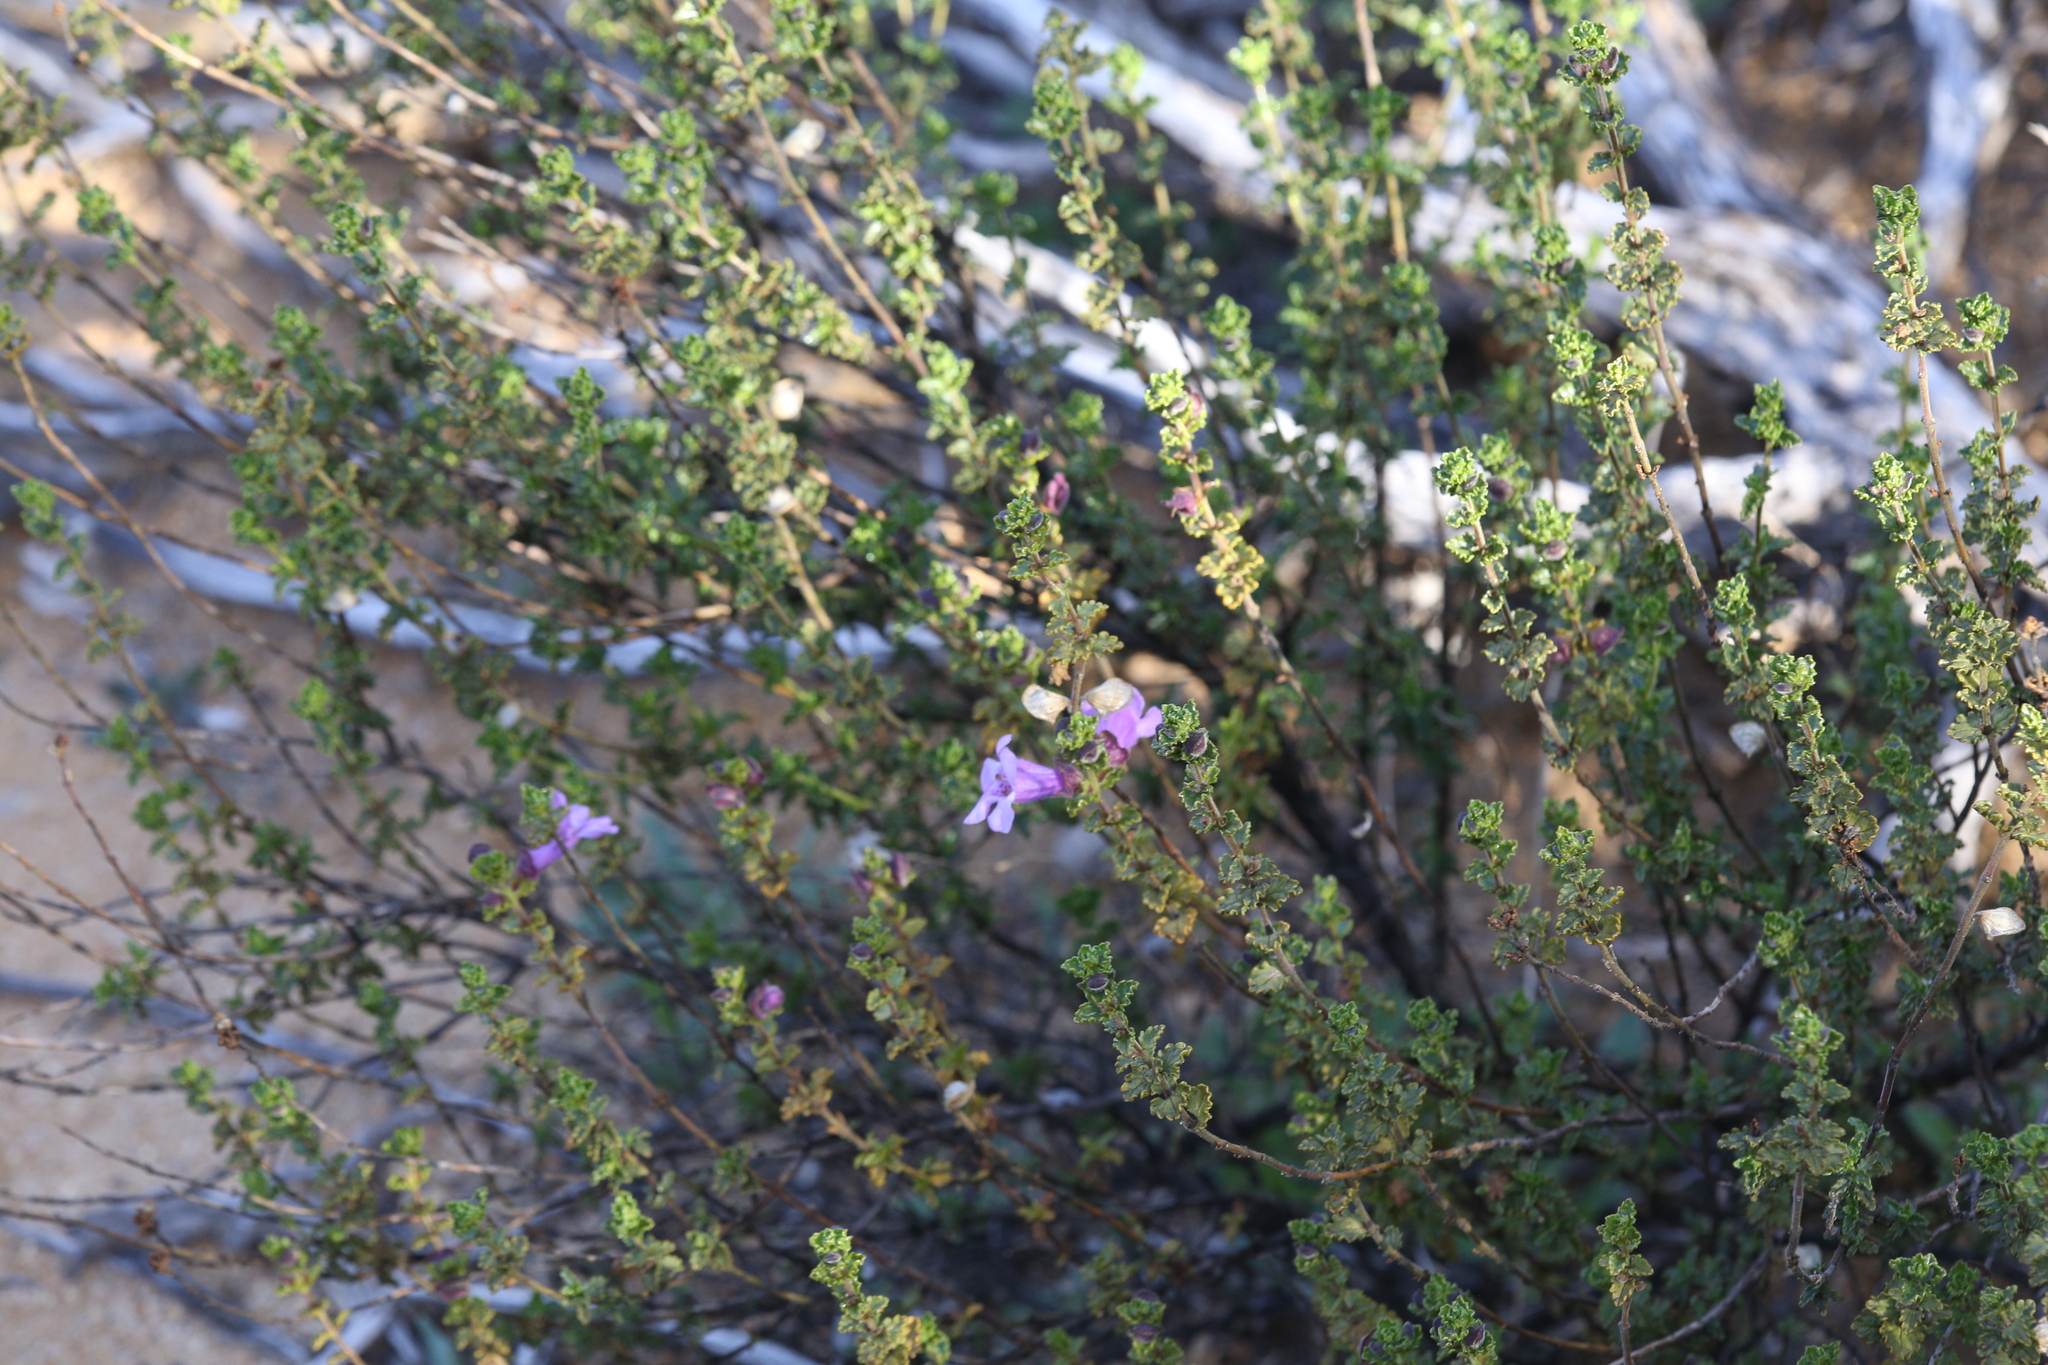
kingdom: Plantae
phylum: Tracheophyta
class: Magnoliopsida
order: Lamiales
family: Lamiaceae
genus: Prostanthera
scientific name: Prostanthera eckersleyana
